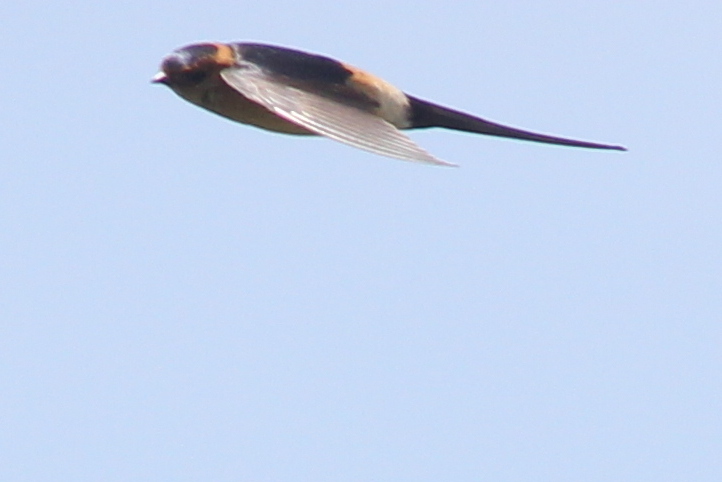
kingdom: Animalia
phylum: Chordata
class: Aves
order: Passeriformes
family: Hirundinidae
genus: Cecropis
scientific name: Cecropis daurica
